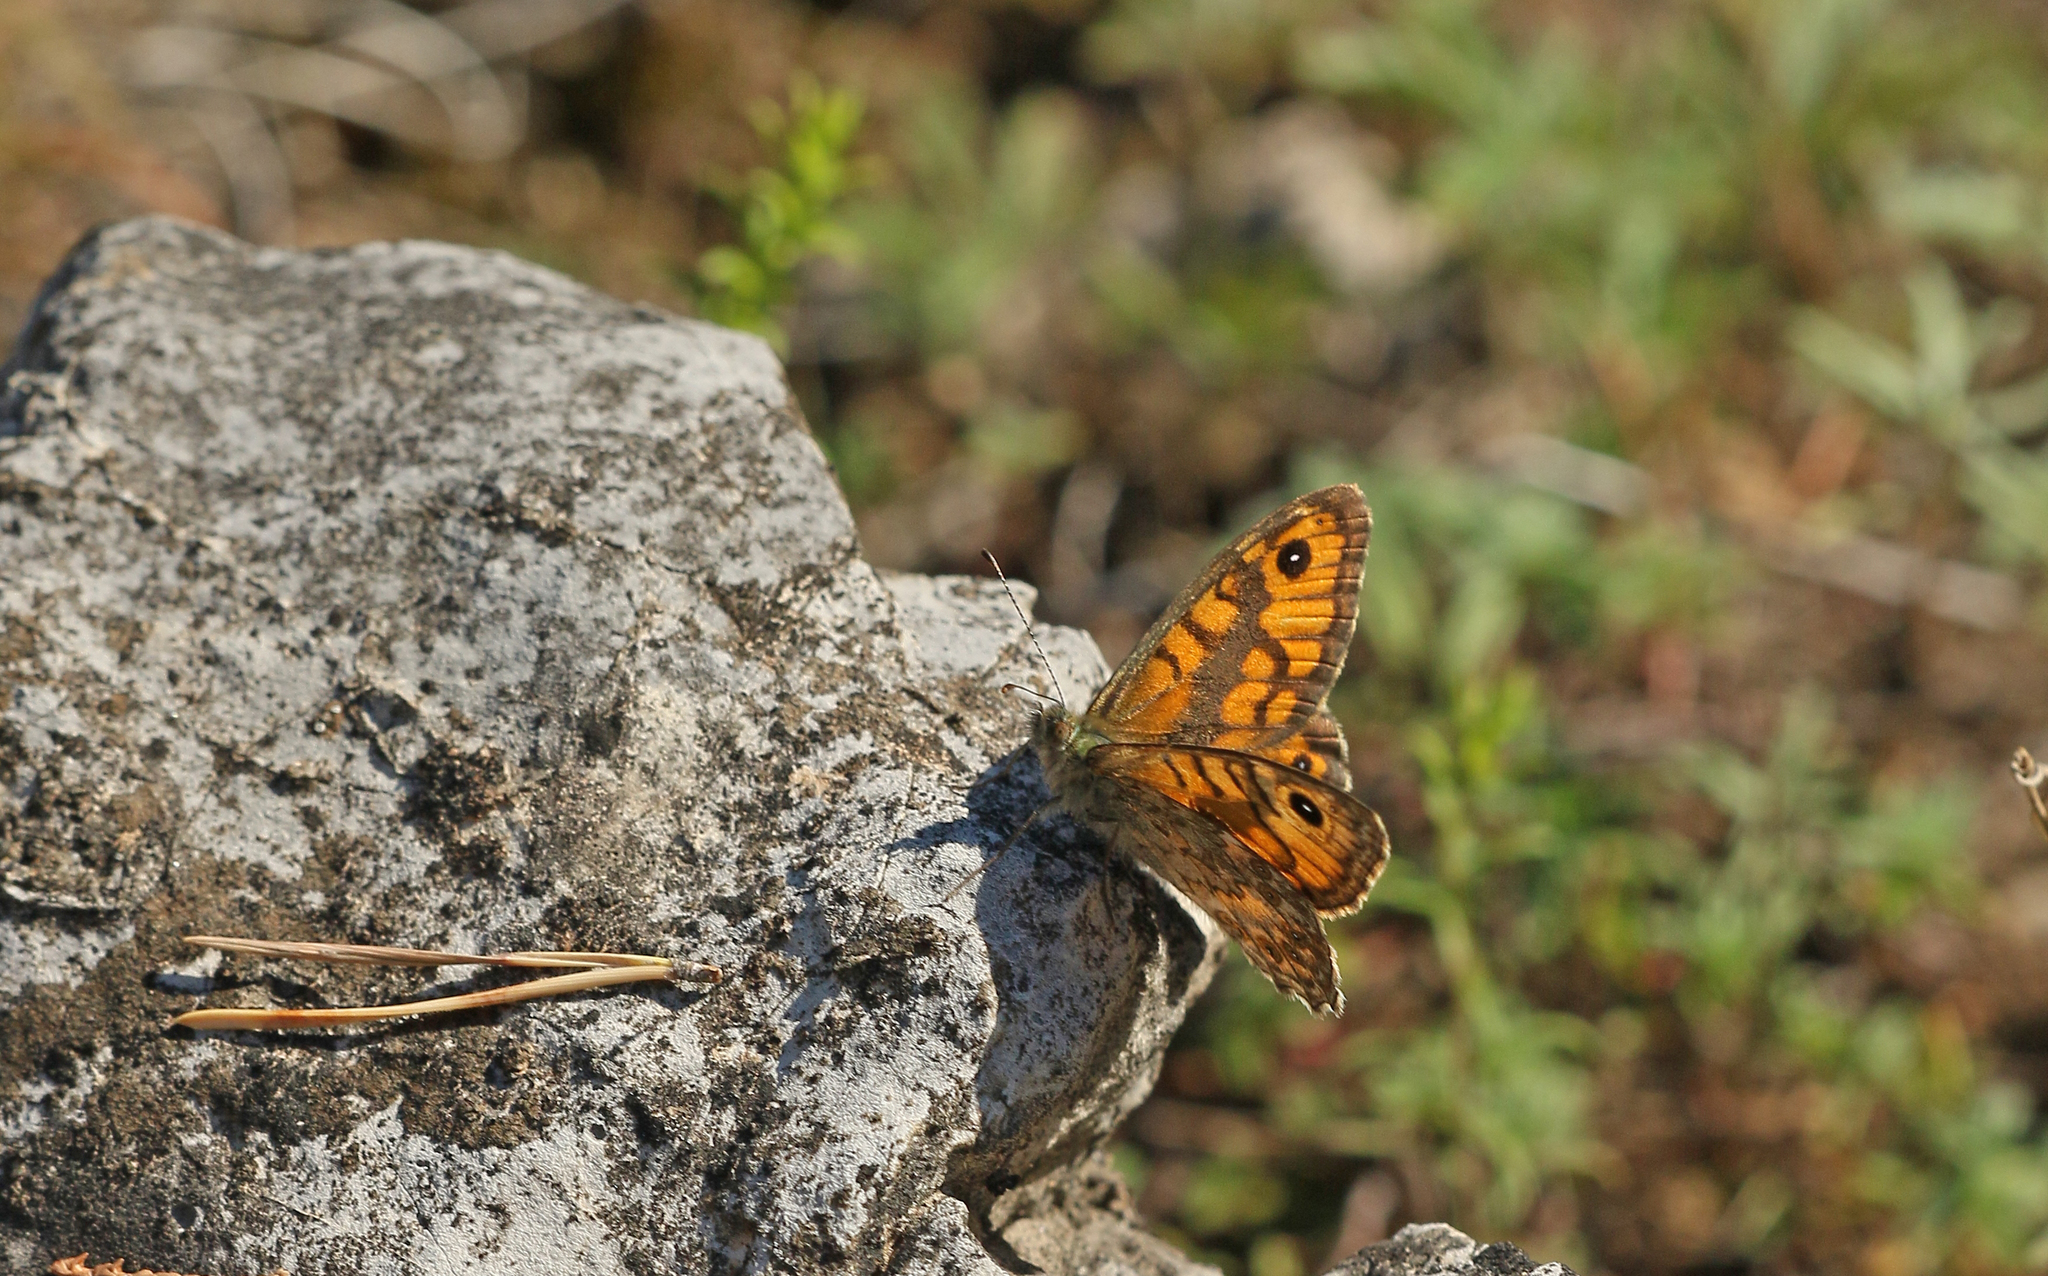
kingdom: Animalia
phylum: Arthropoda
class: Insecta
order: Lepidoptera
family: Nymphalidae
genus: Pararge
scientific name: Pararge Lasiommata megera
